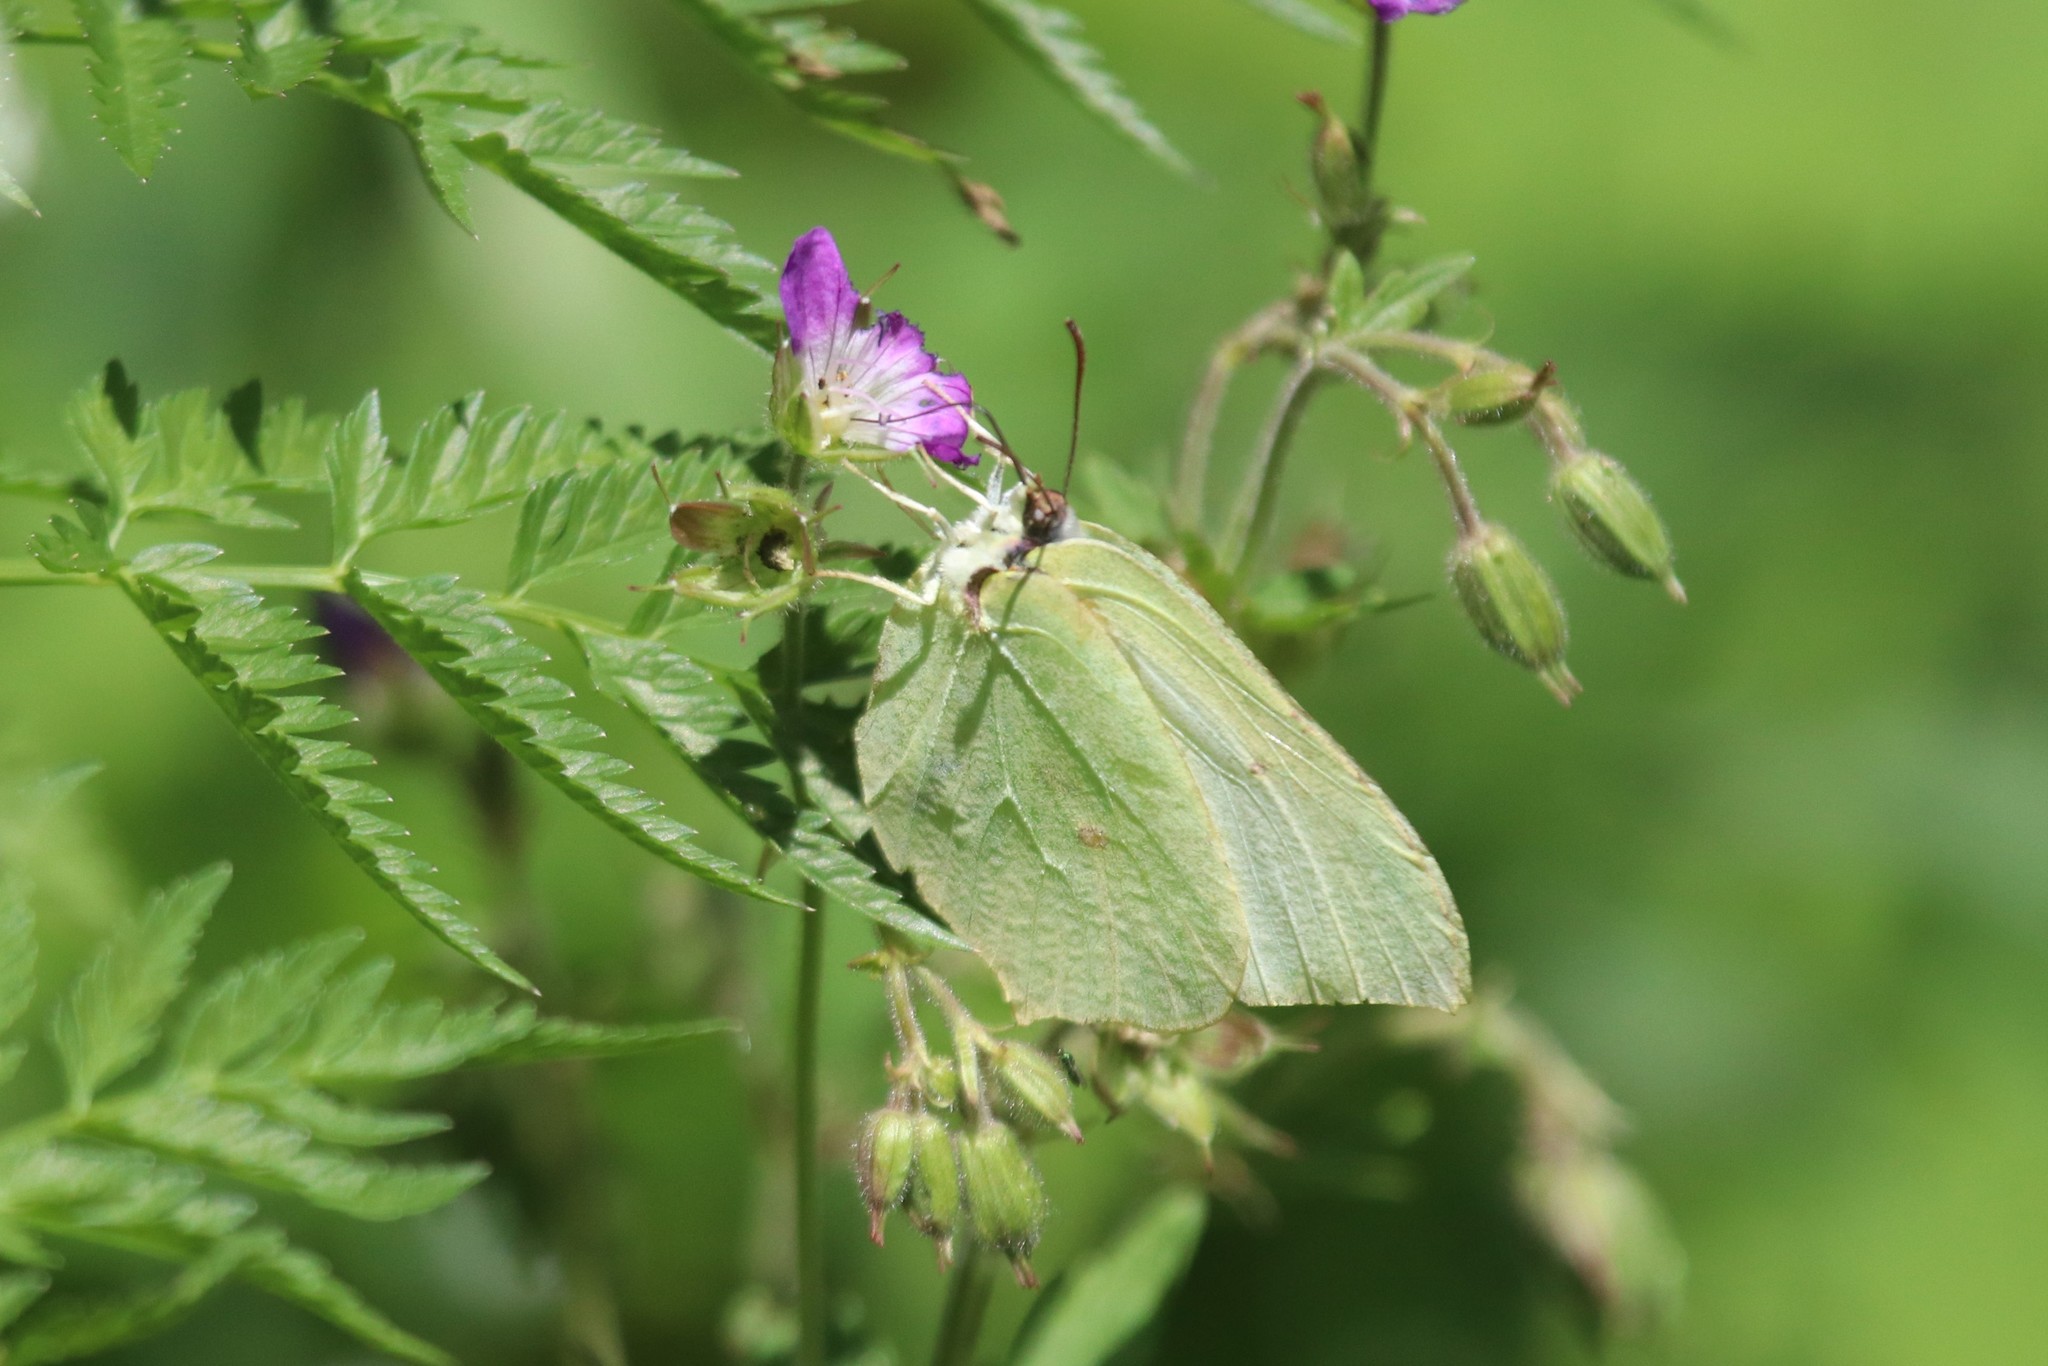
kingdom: Animalia
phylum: Arthropoda
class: Insecta
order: Lepidoptera
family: Pieridae
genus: Gonepteryx
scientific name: Gonepteryx rhamni
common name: Brimstone
